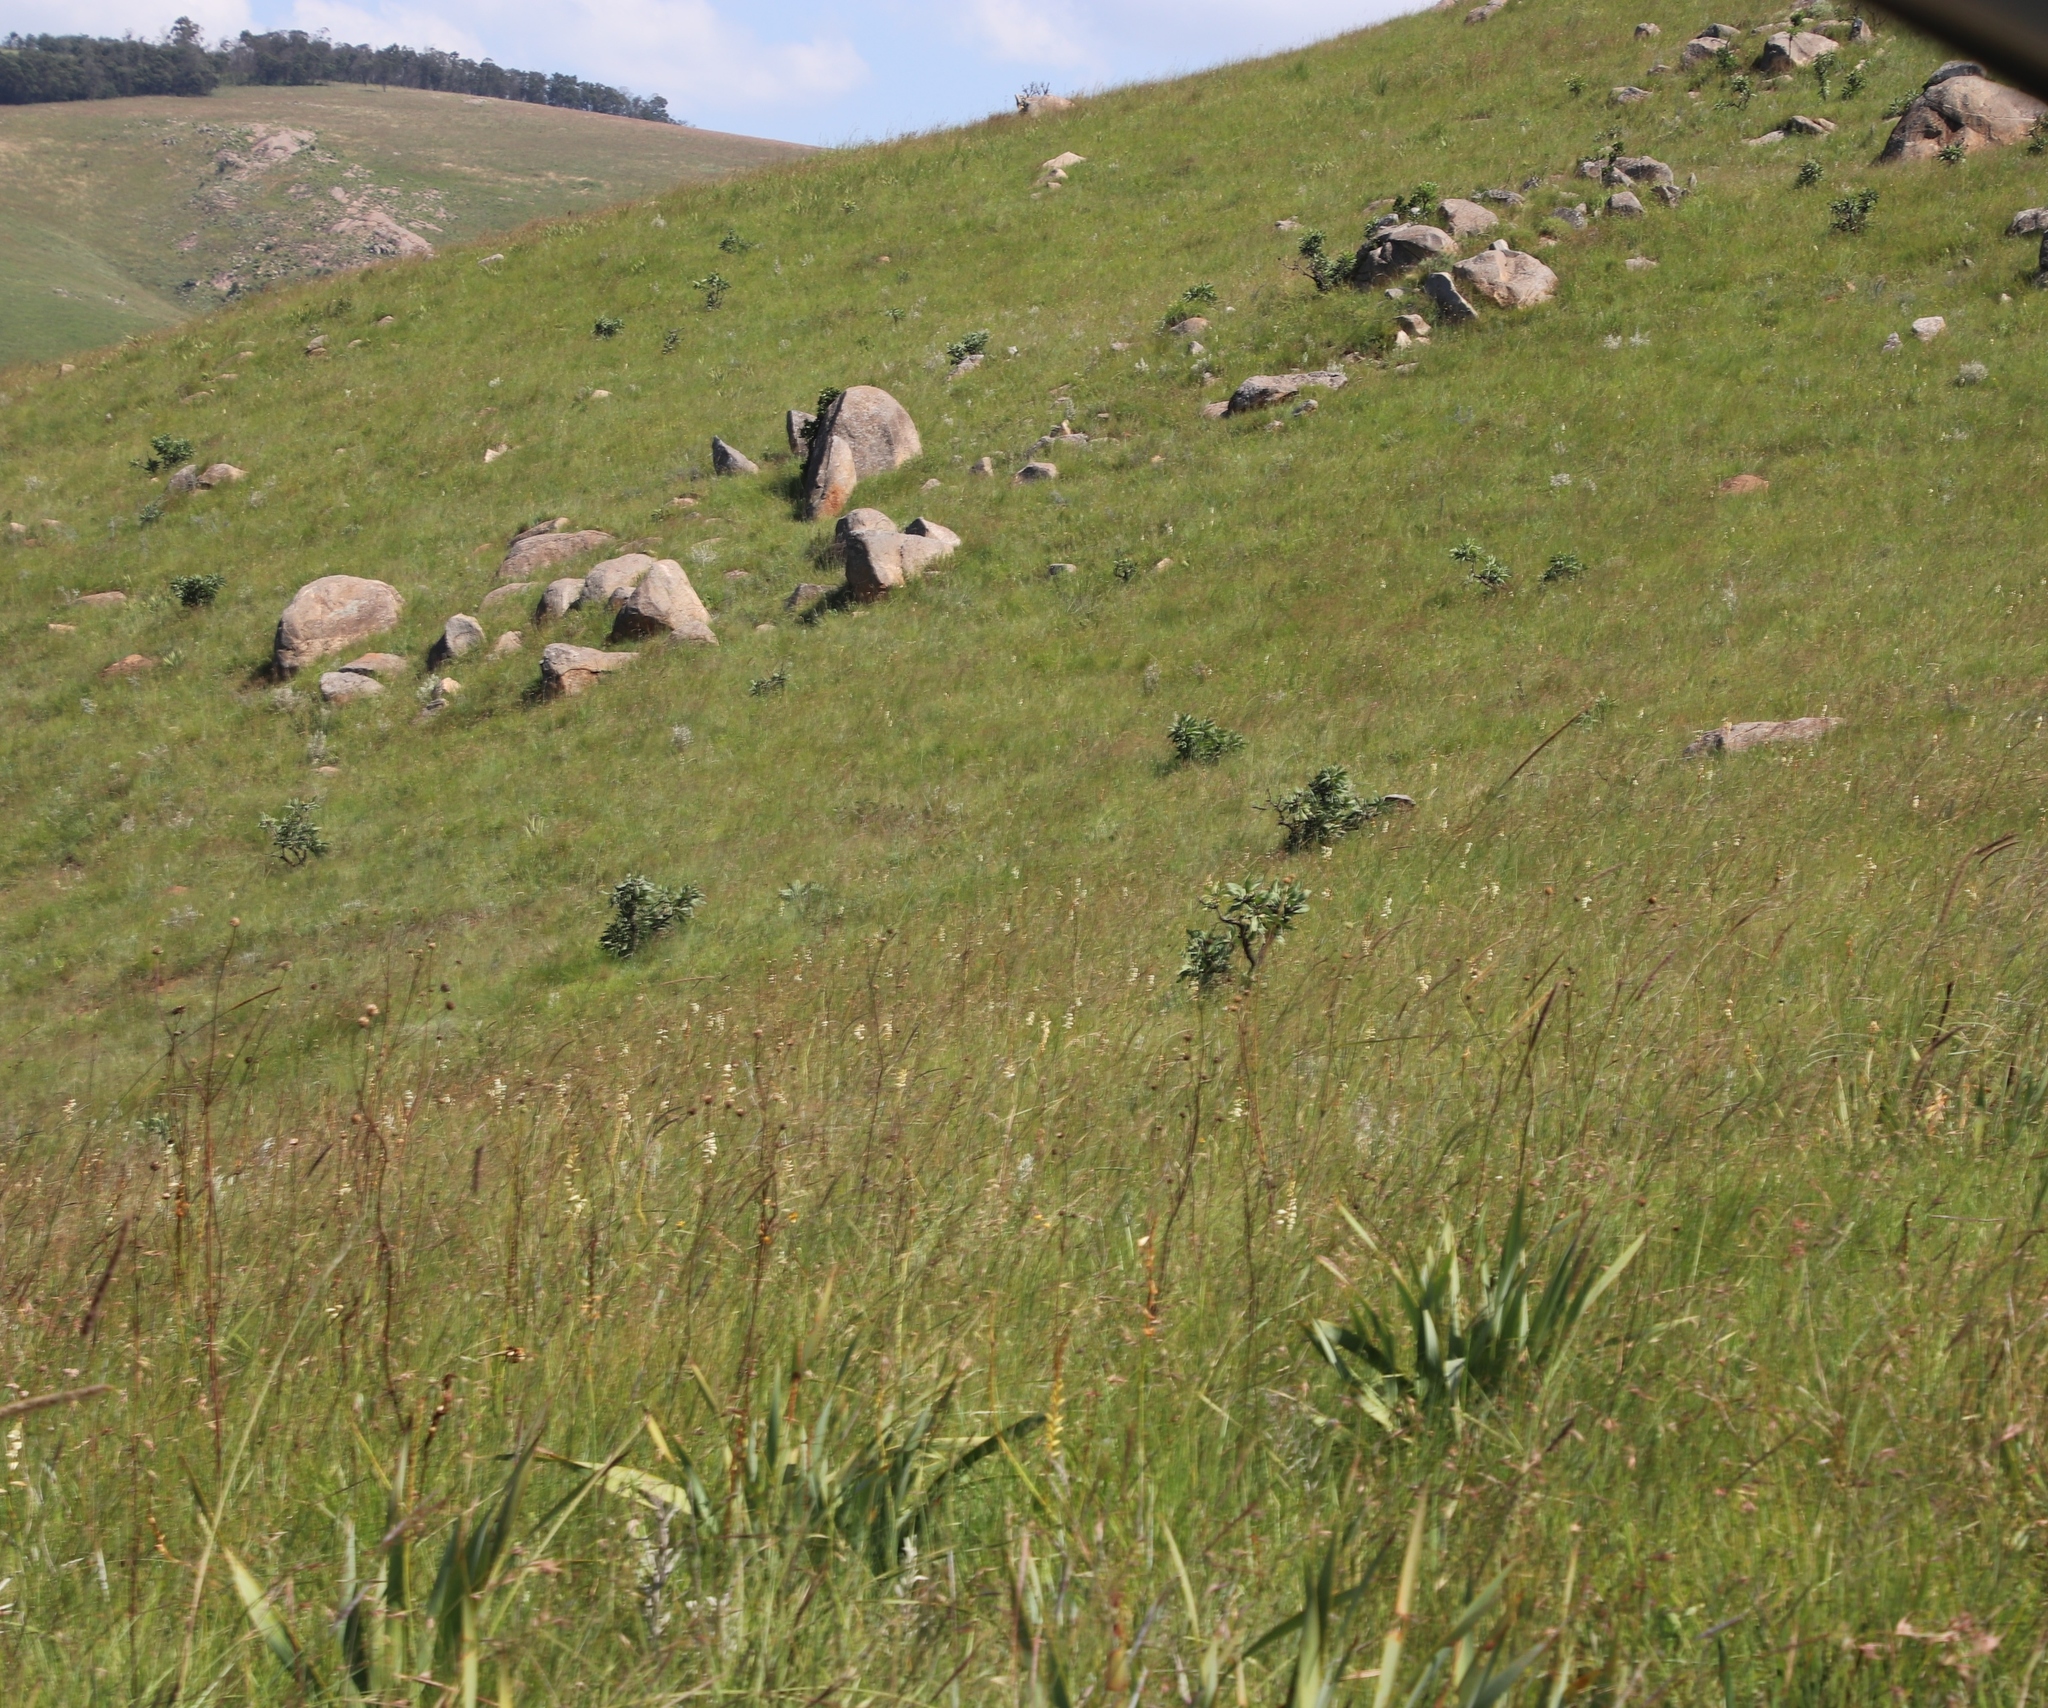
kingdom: Plantae
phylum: Tracheophyta
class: Magnoliopsida
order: Proteales
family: Proteaceae
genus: Protea
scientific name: Protea caffra
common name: Common sugarbush
